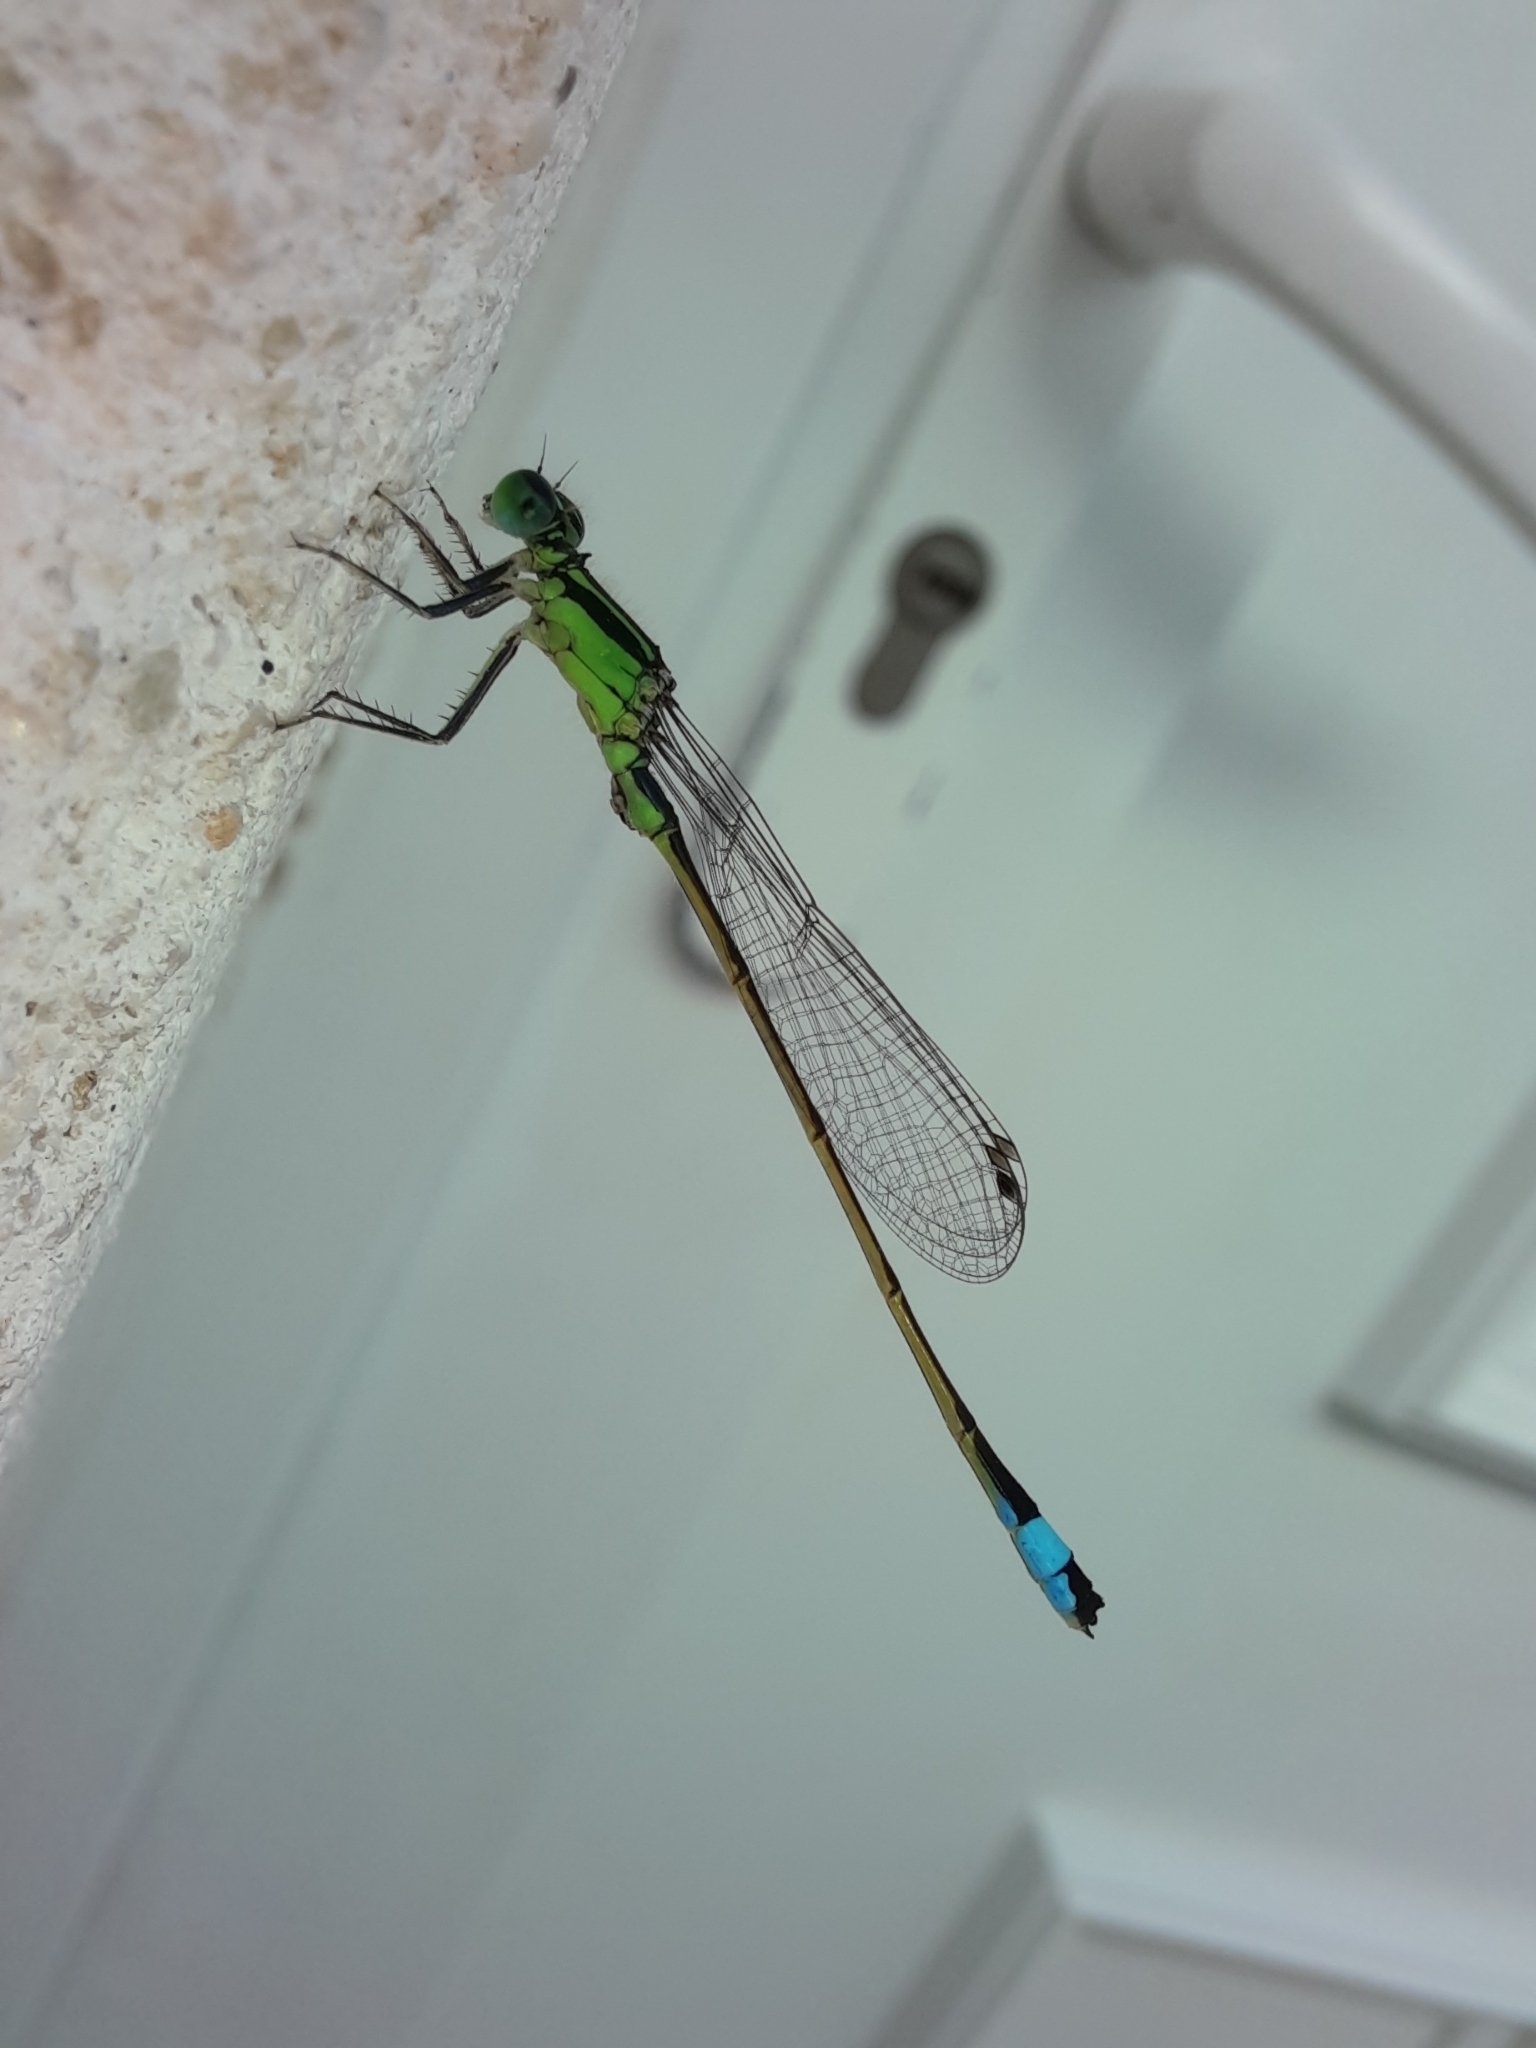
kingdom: Animalia
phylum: Arthropoda
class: Insecta
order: Odonata
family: Coenagrionidae
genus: Ischnura
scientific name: Ischnura elegans
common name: Blue-tailed damselfly
